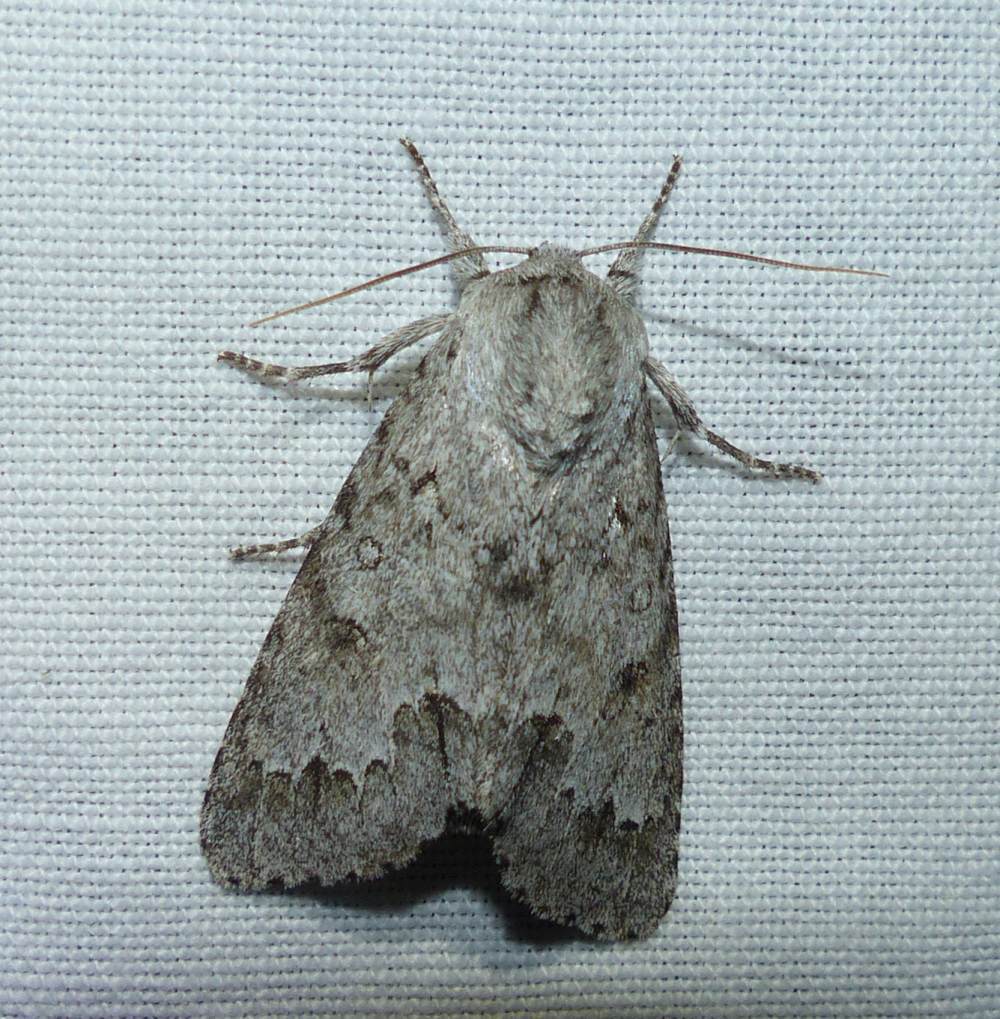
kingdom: Animalia
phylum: Arthropoda
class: Insecta
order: Lepidoptera
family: Noctuidae
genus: Acronicta
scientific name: Acronicta insita
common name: Large gray dagger
